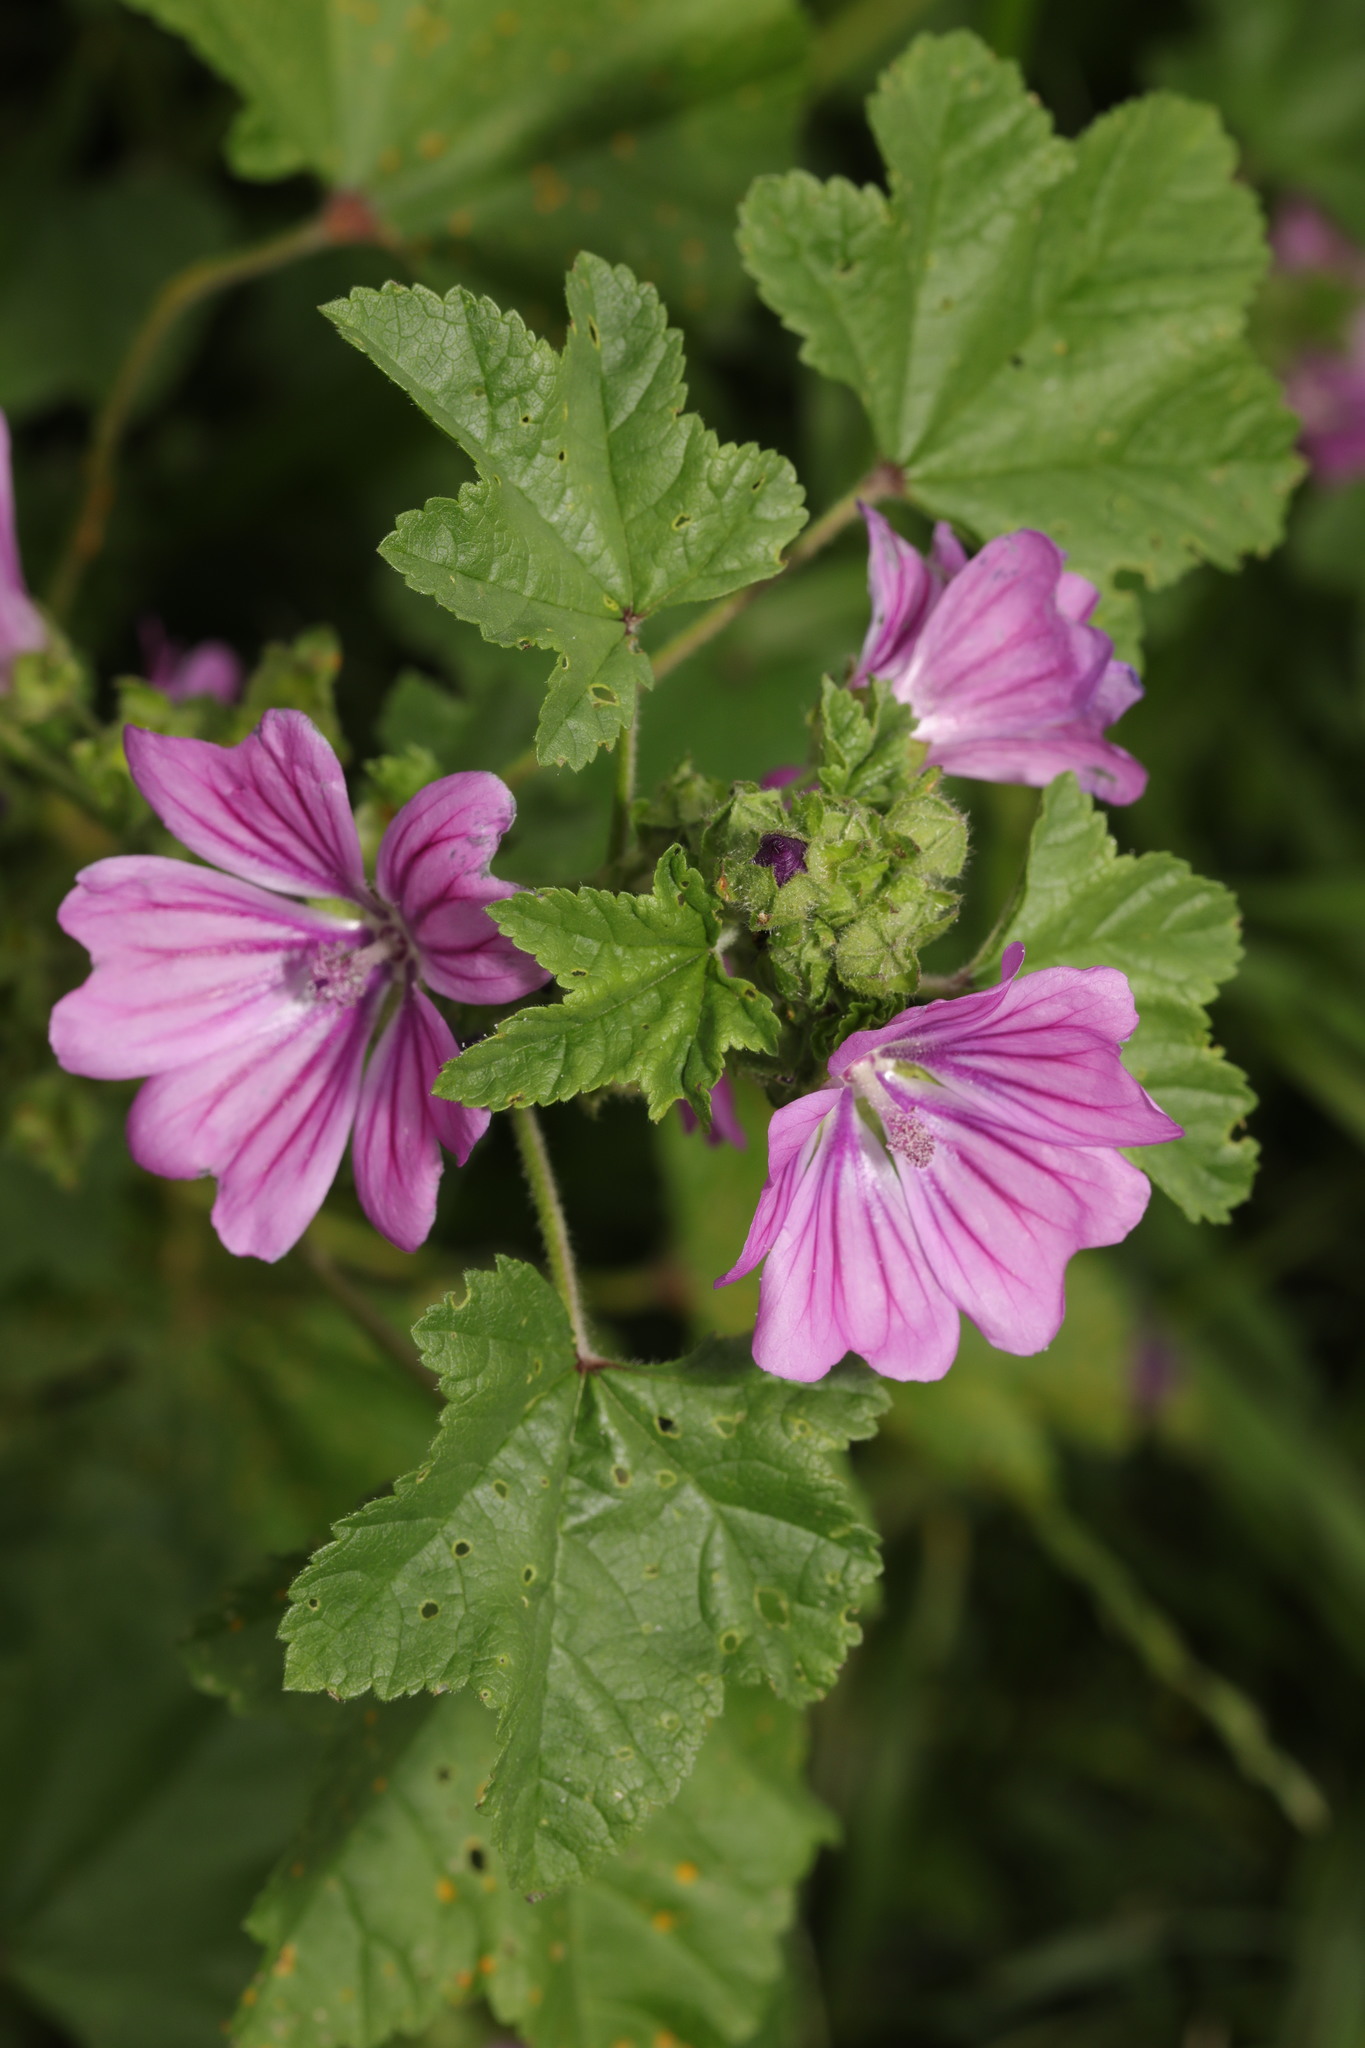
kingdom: Plantae
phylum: Tracheophyta
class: Magnoliopsida
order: Malvales
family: Malvaceae
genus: Malva
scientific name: Malva sylvestris
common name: Common mallow
